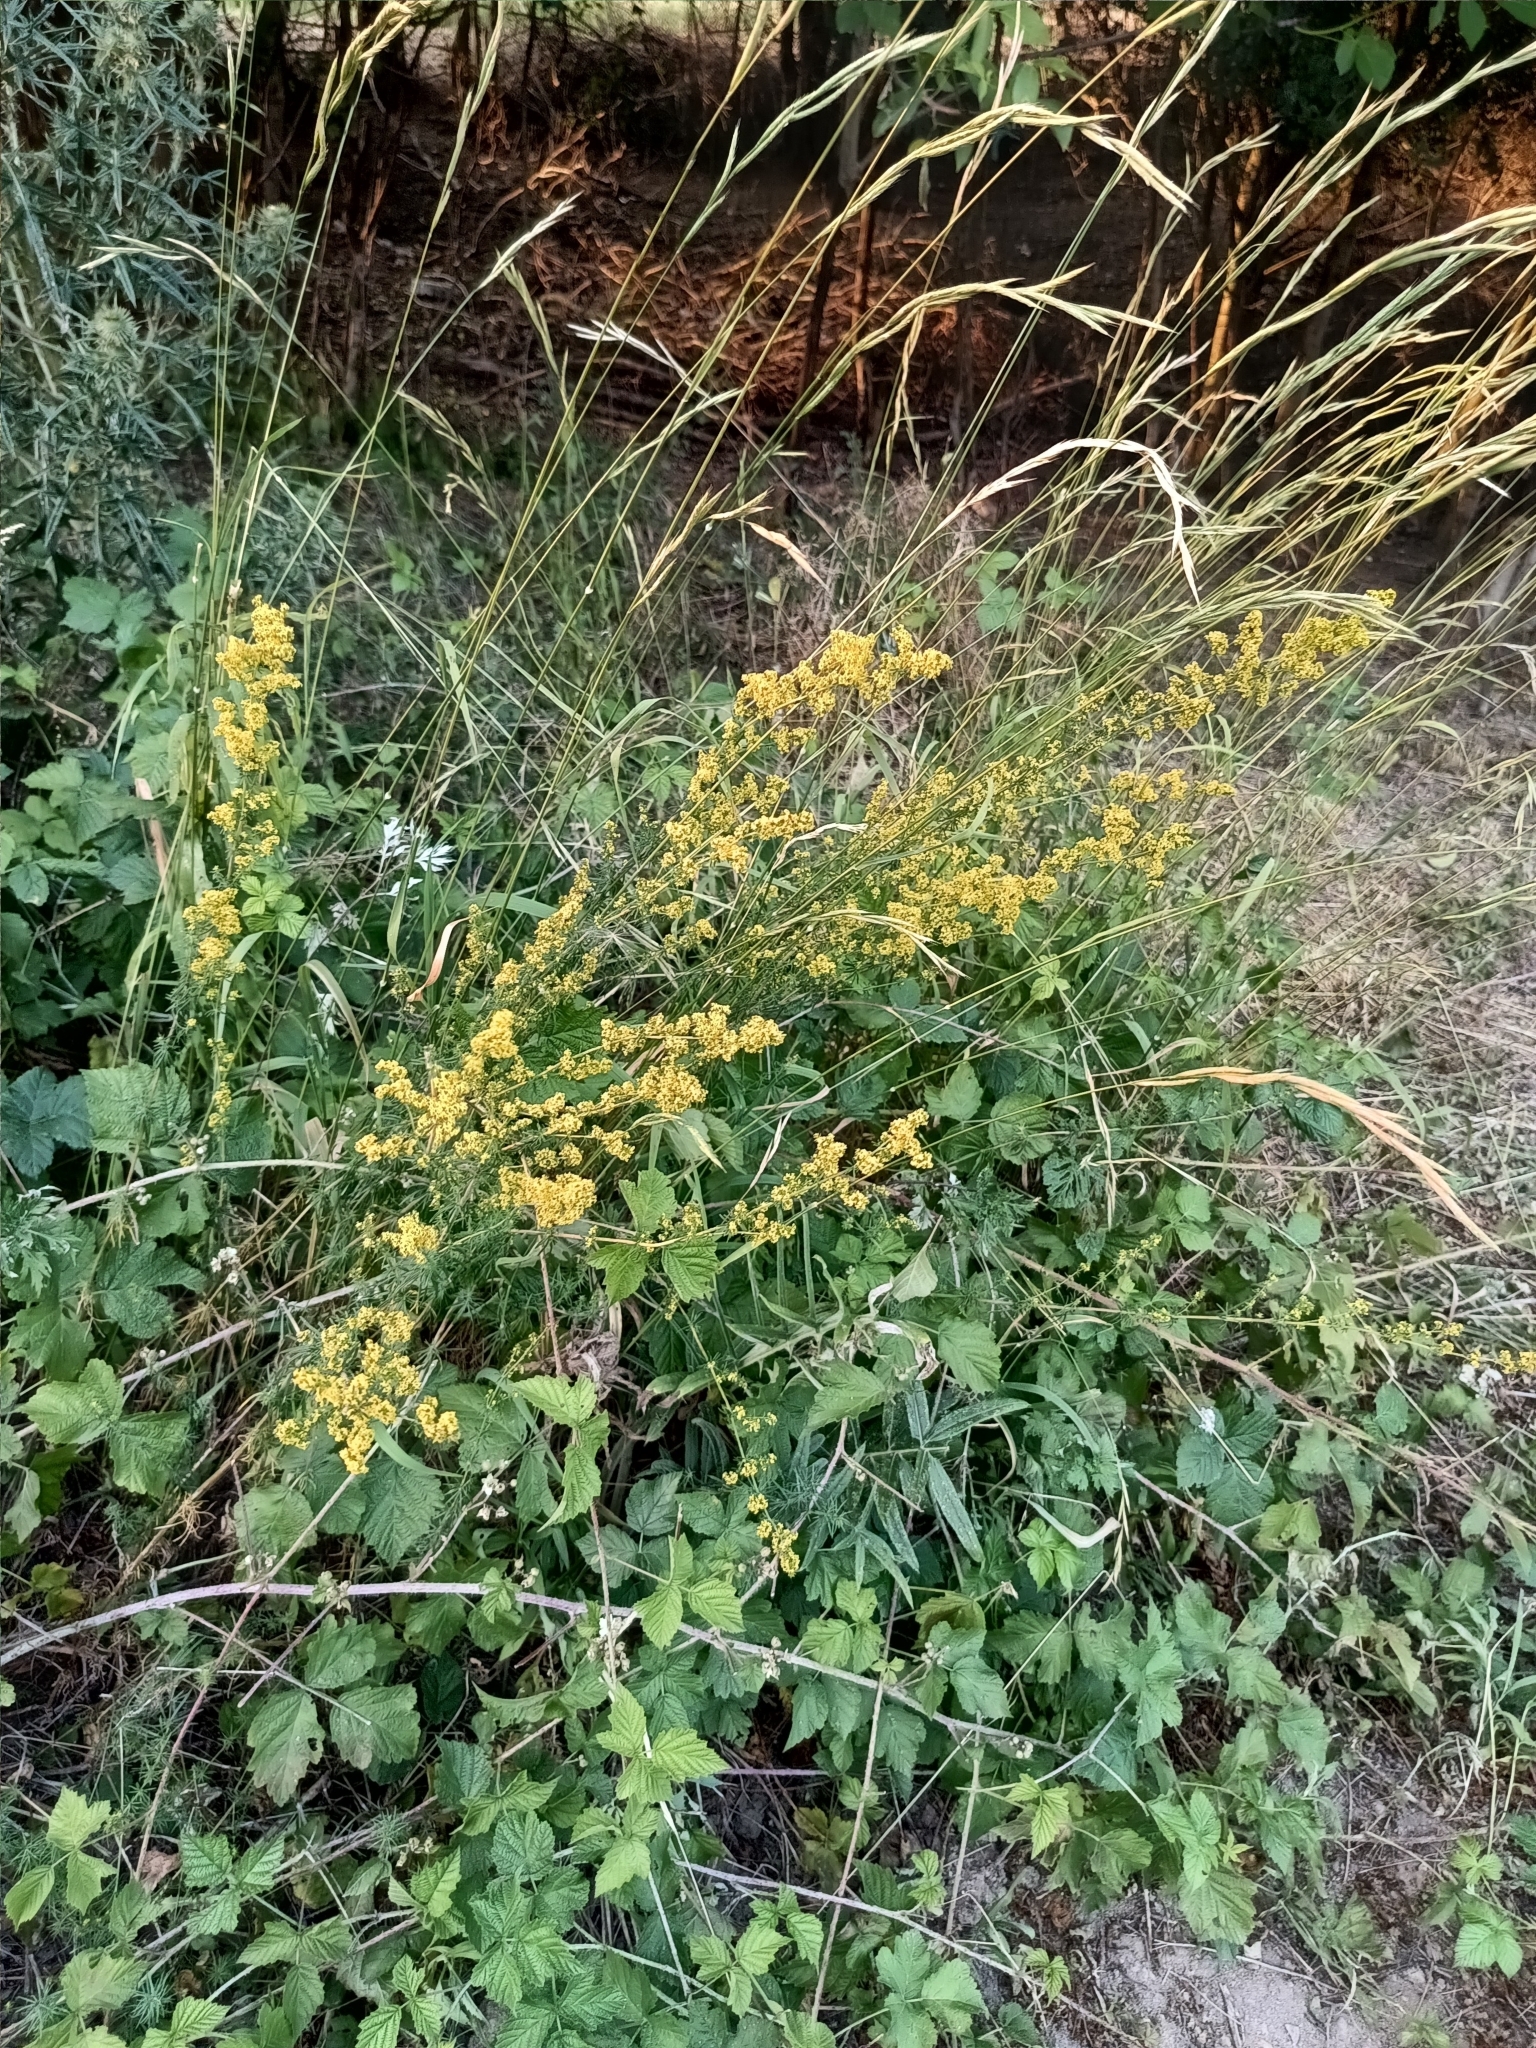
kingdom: Plantae
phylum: Tracheophyta
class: Magnoliopsida
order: Gentianales
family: Rubiaceae
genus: Galium
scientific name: Galium verum
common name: Lady's bedstraw
